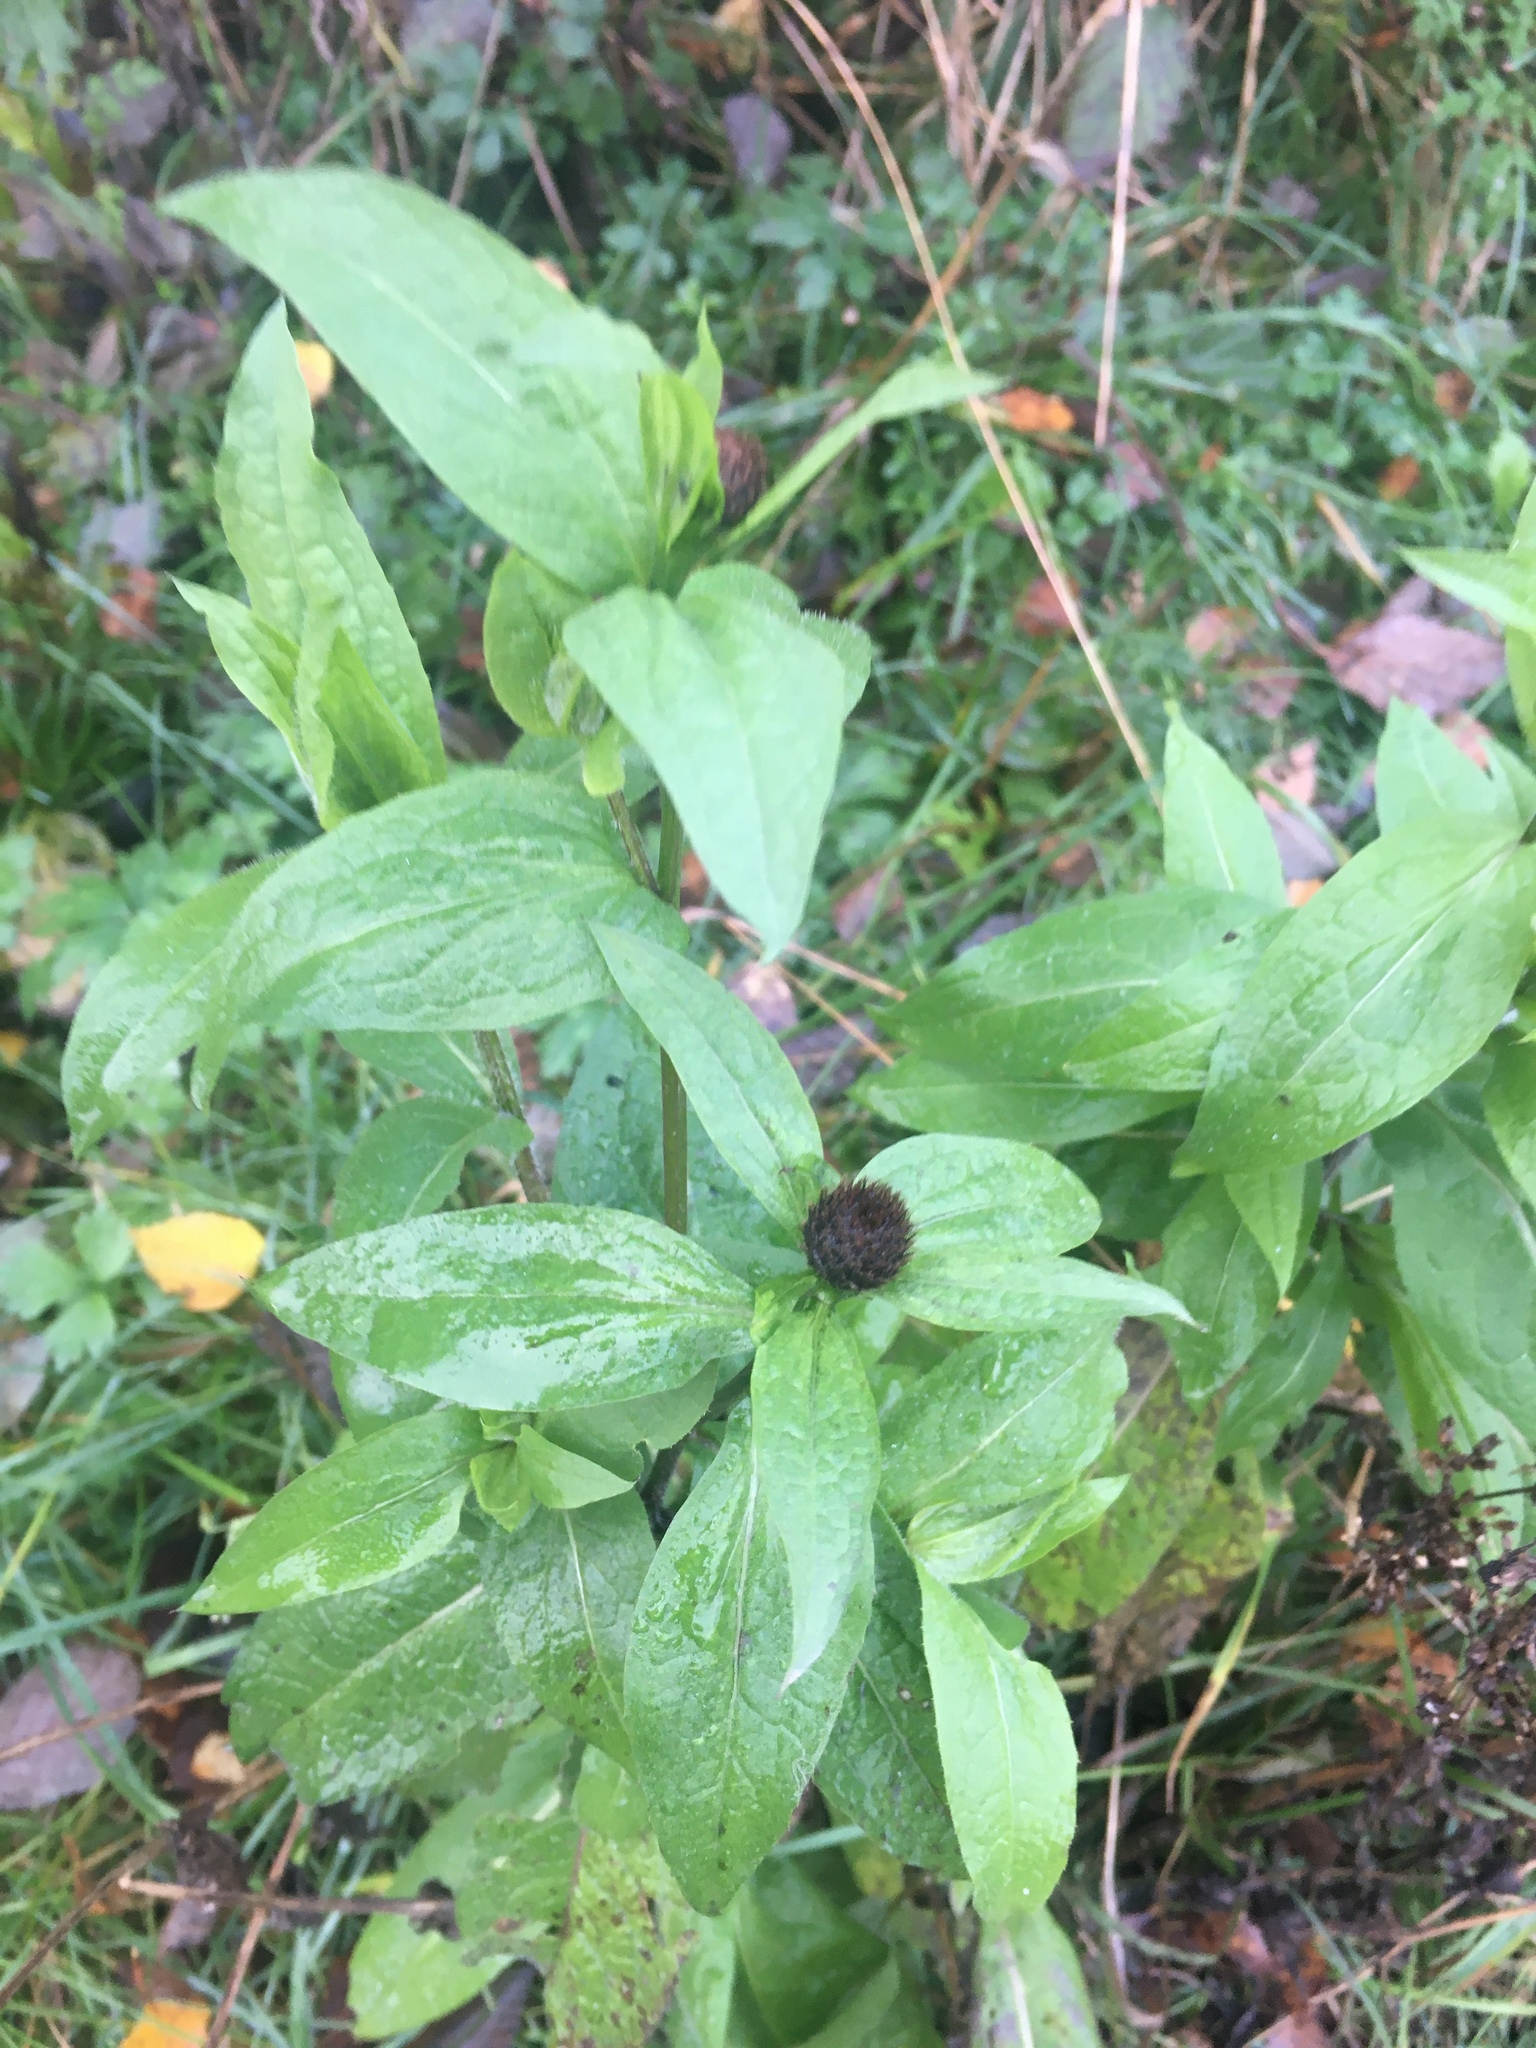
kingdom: Plantae
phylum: Tracheophyta
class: Magnoliopsida
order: Asterales
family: Asteraceae
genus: Centaurea
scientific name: Centaurea phrygia
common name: Wig knapweed
